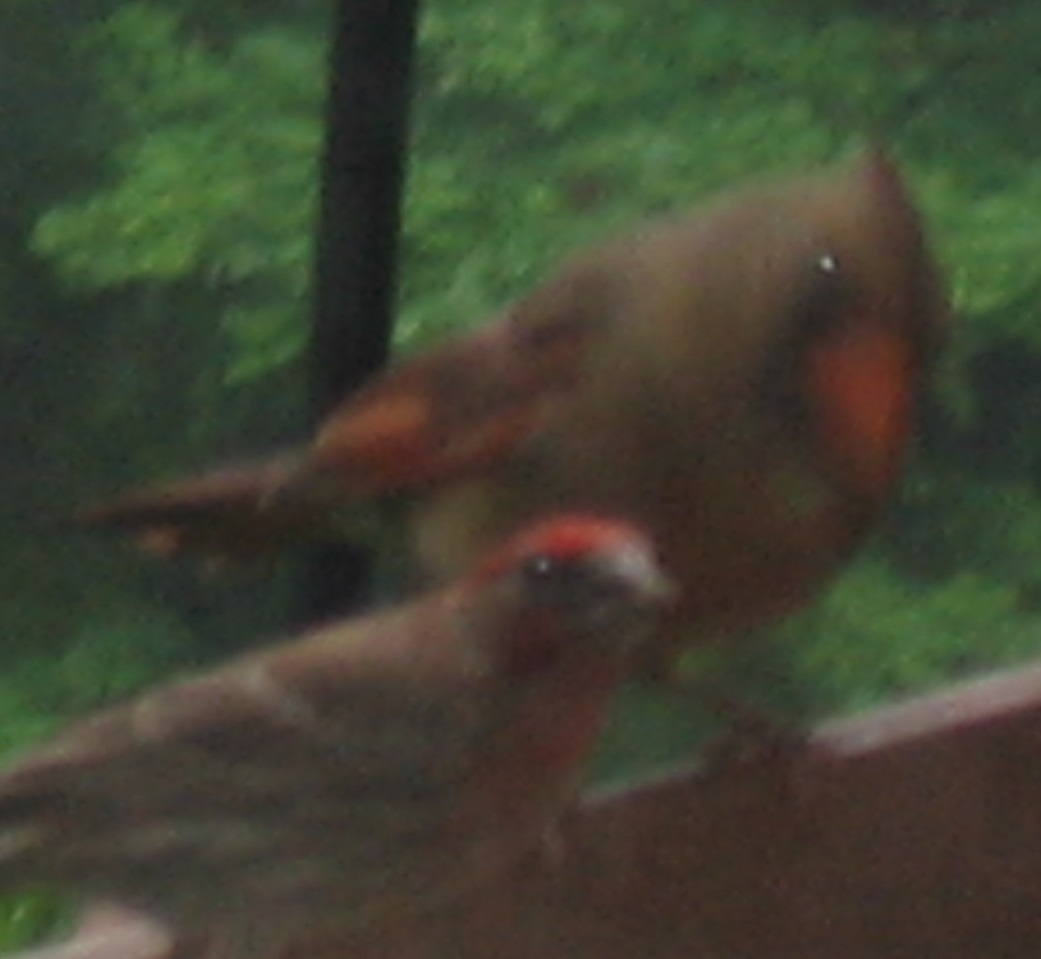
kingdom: Animalia
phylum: Chordata
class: Aves
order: Passeriformes
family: Cardinalidae
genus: Cardinalis
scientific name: Cardinalis cardinalis
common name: Northern cardinal
